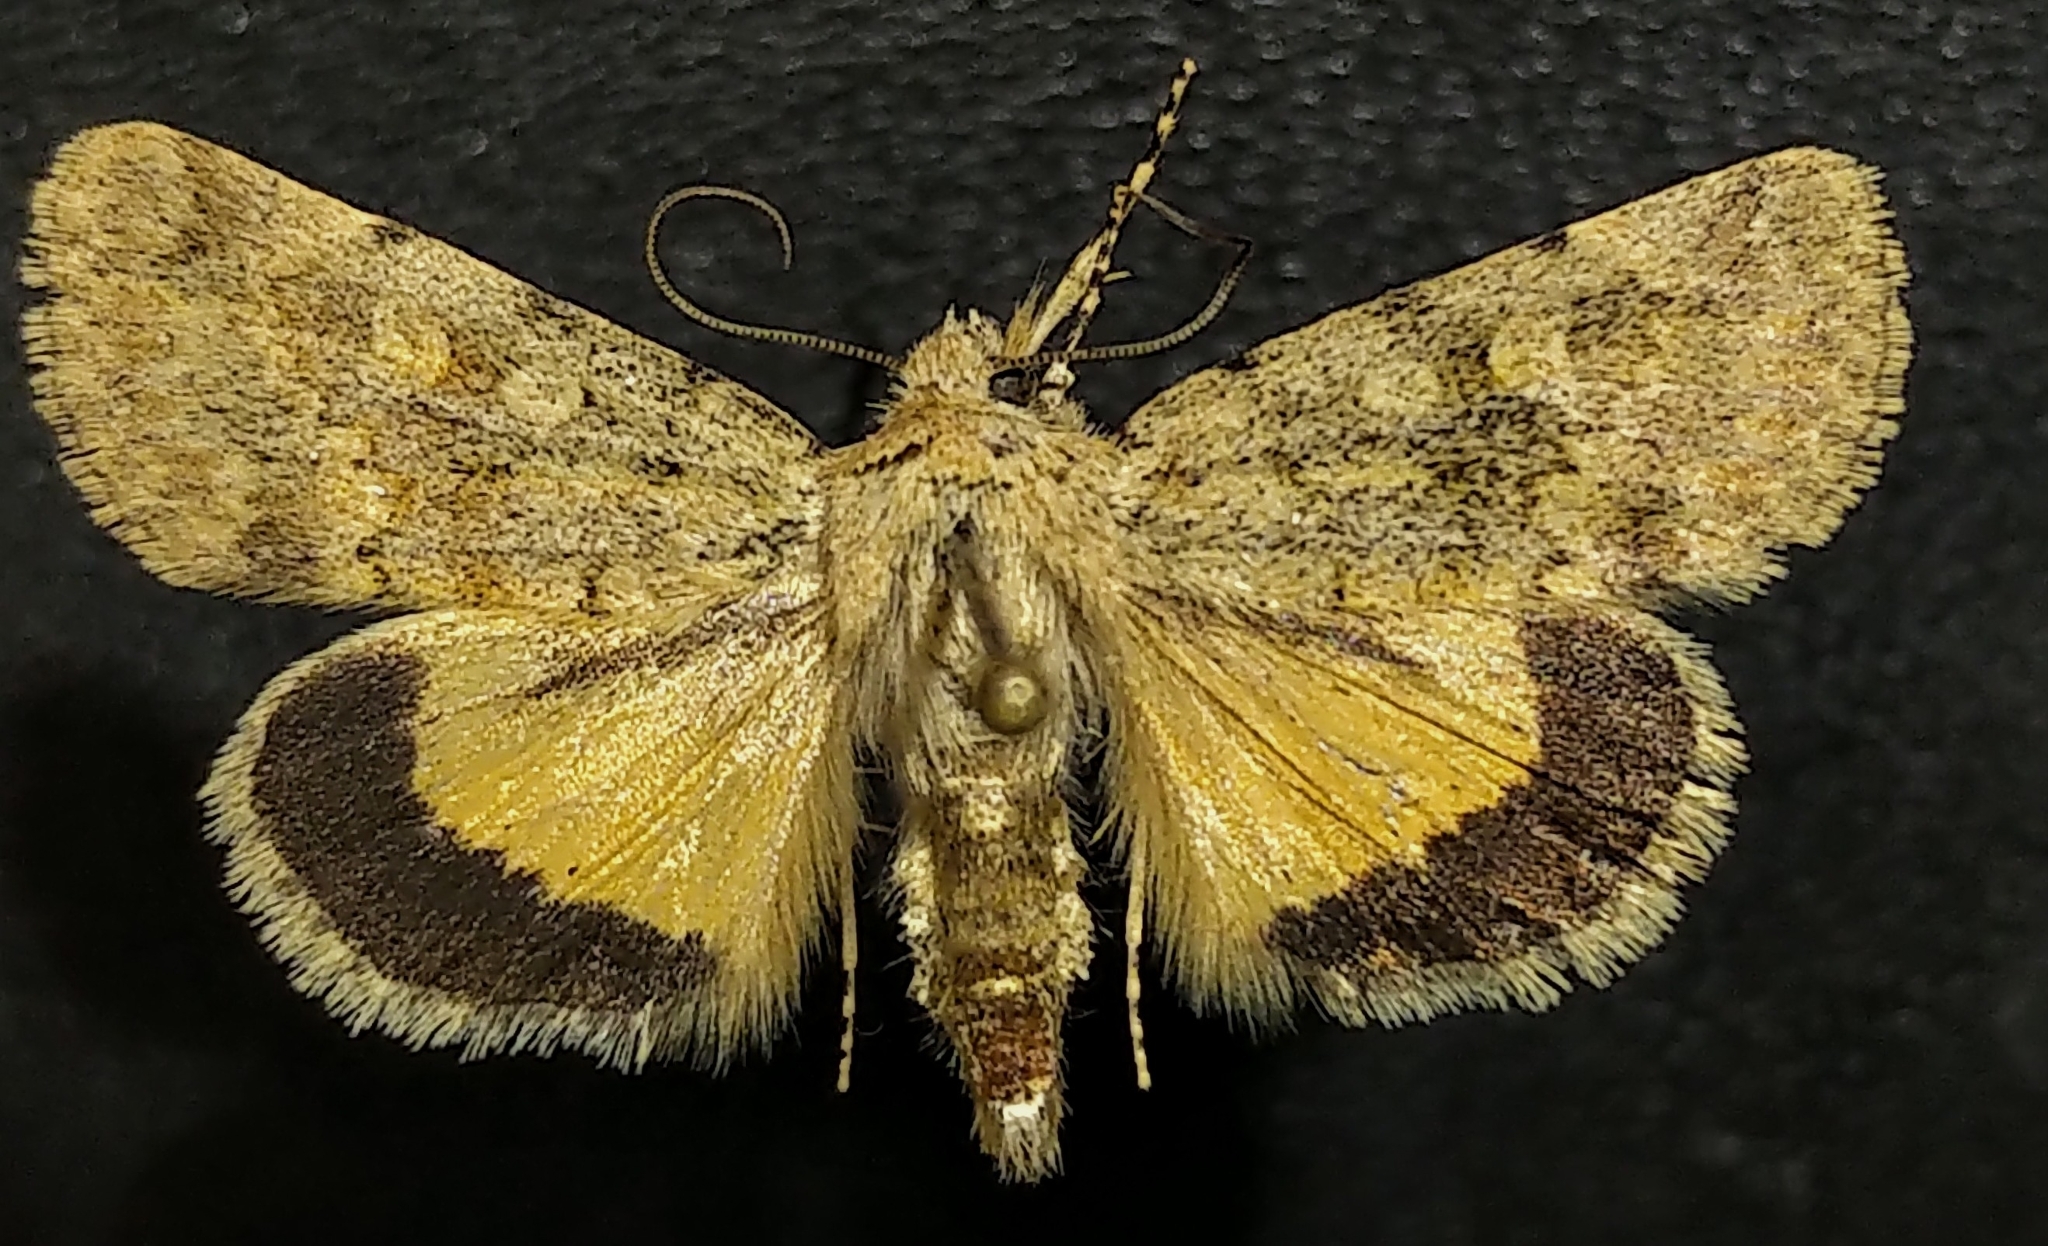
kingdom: Animalia
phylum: Arthropoda
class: Insecta
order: Lepidoptera
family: Noctuidae
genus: Sympistis
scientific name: Sympistis regina
